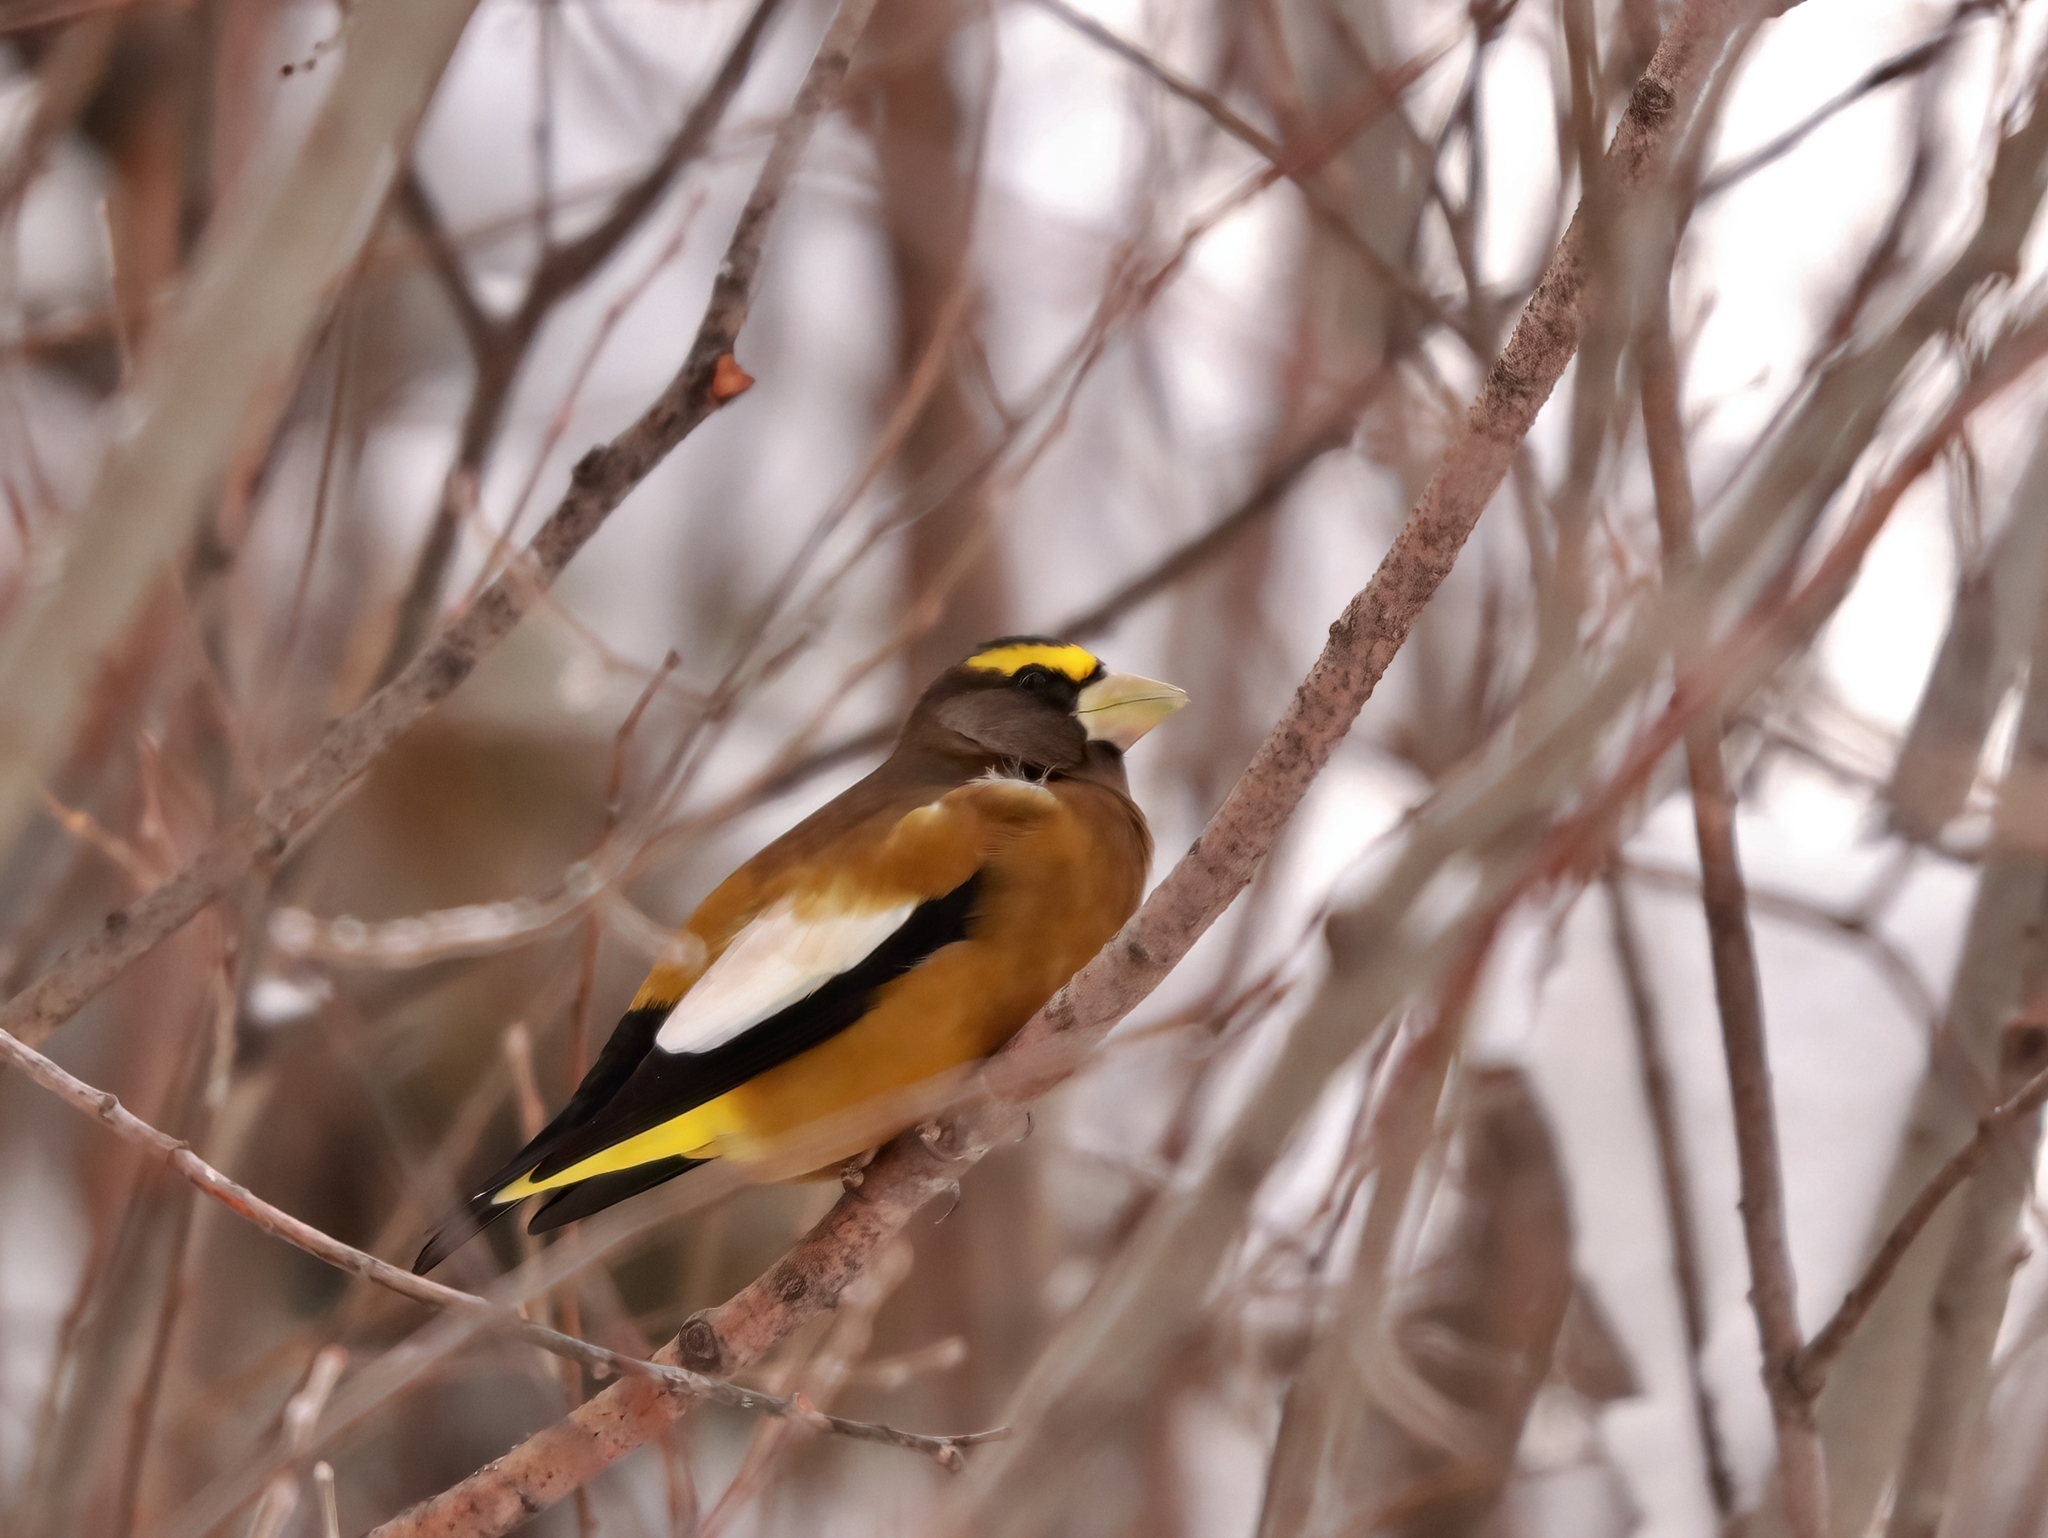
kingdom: Animalia
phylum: Chordata
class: Aves
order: Passeriformes
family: Fringillidae
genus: Hesperiphona
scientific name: Hesperiphona vespertina
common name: Evening grosbeak
